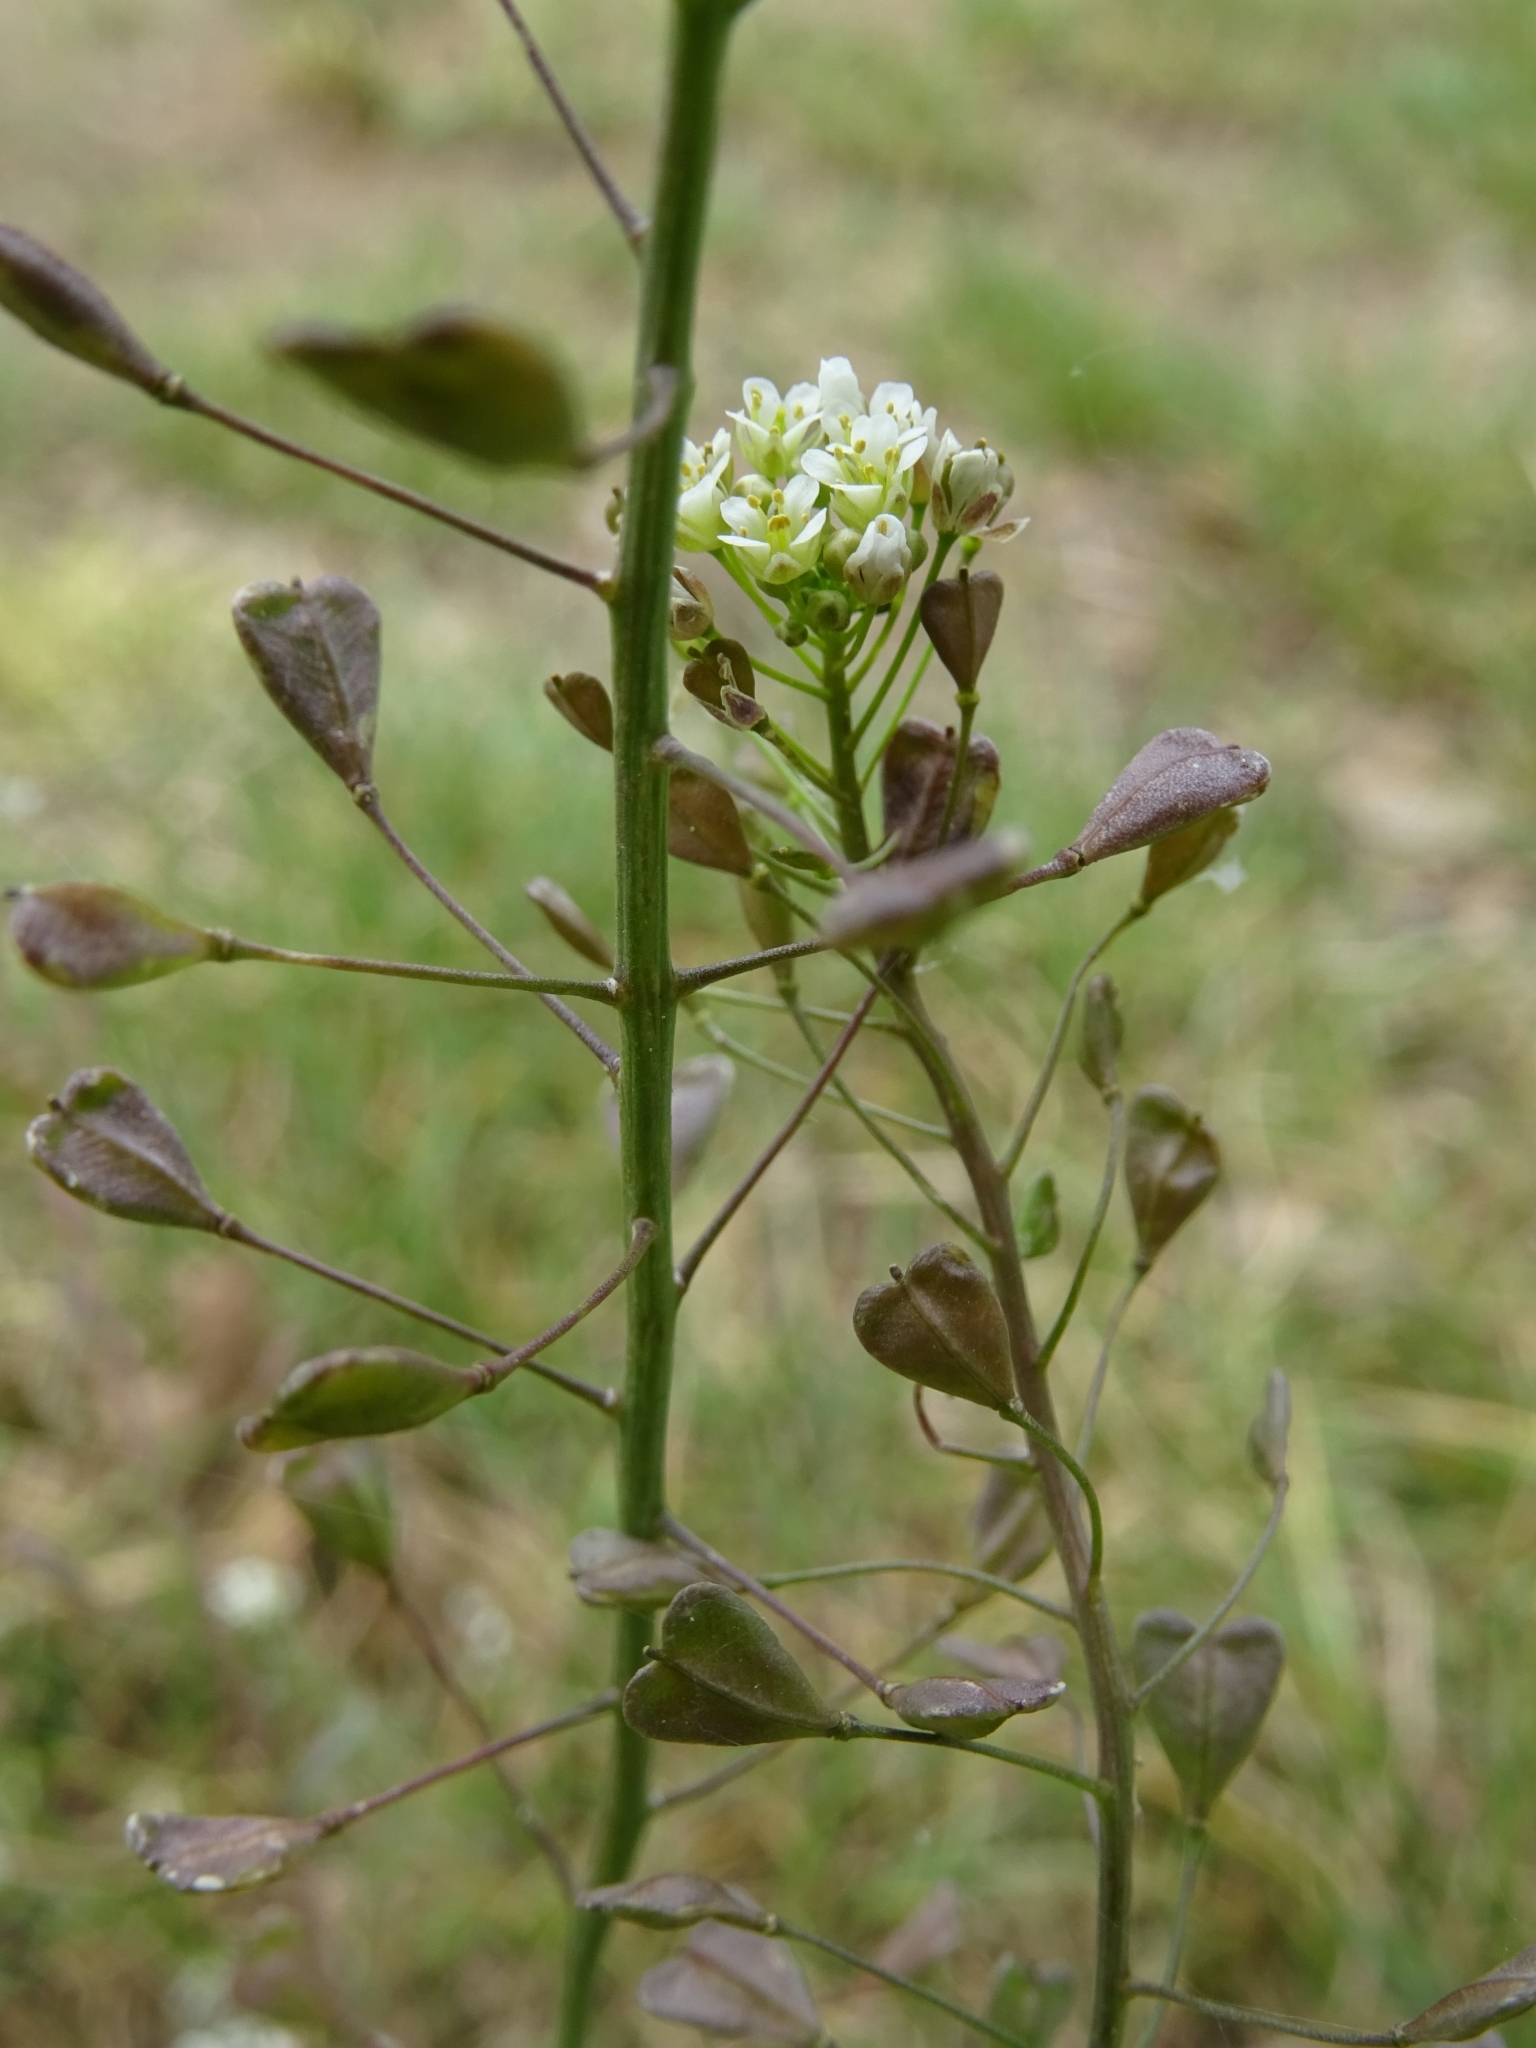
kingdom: Plantae
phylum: Tracheophyta
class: Magnoliopsida
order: Brassicales
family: Brassicaceae
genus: Capsella
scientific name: Capsella bursa-pastoris
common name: Shepherd's purse
